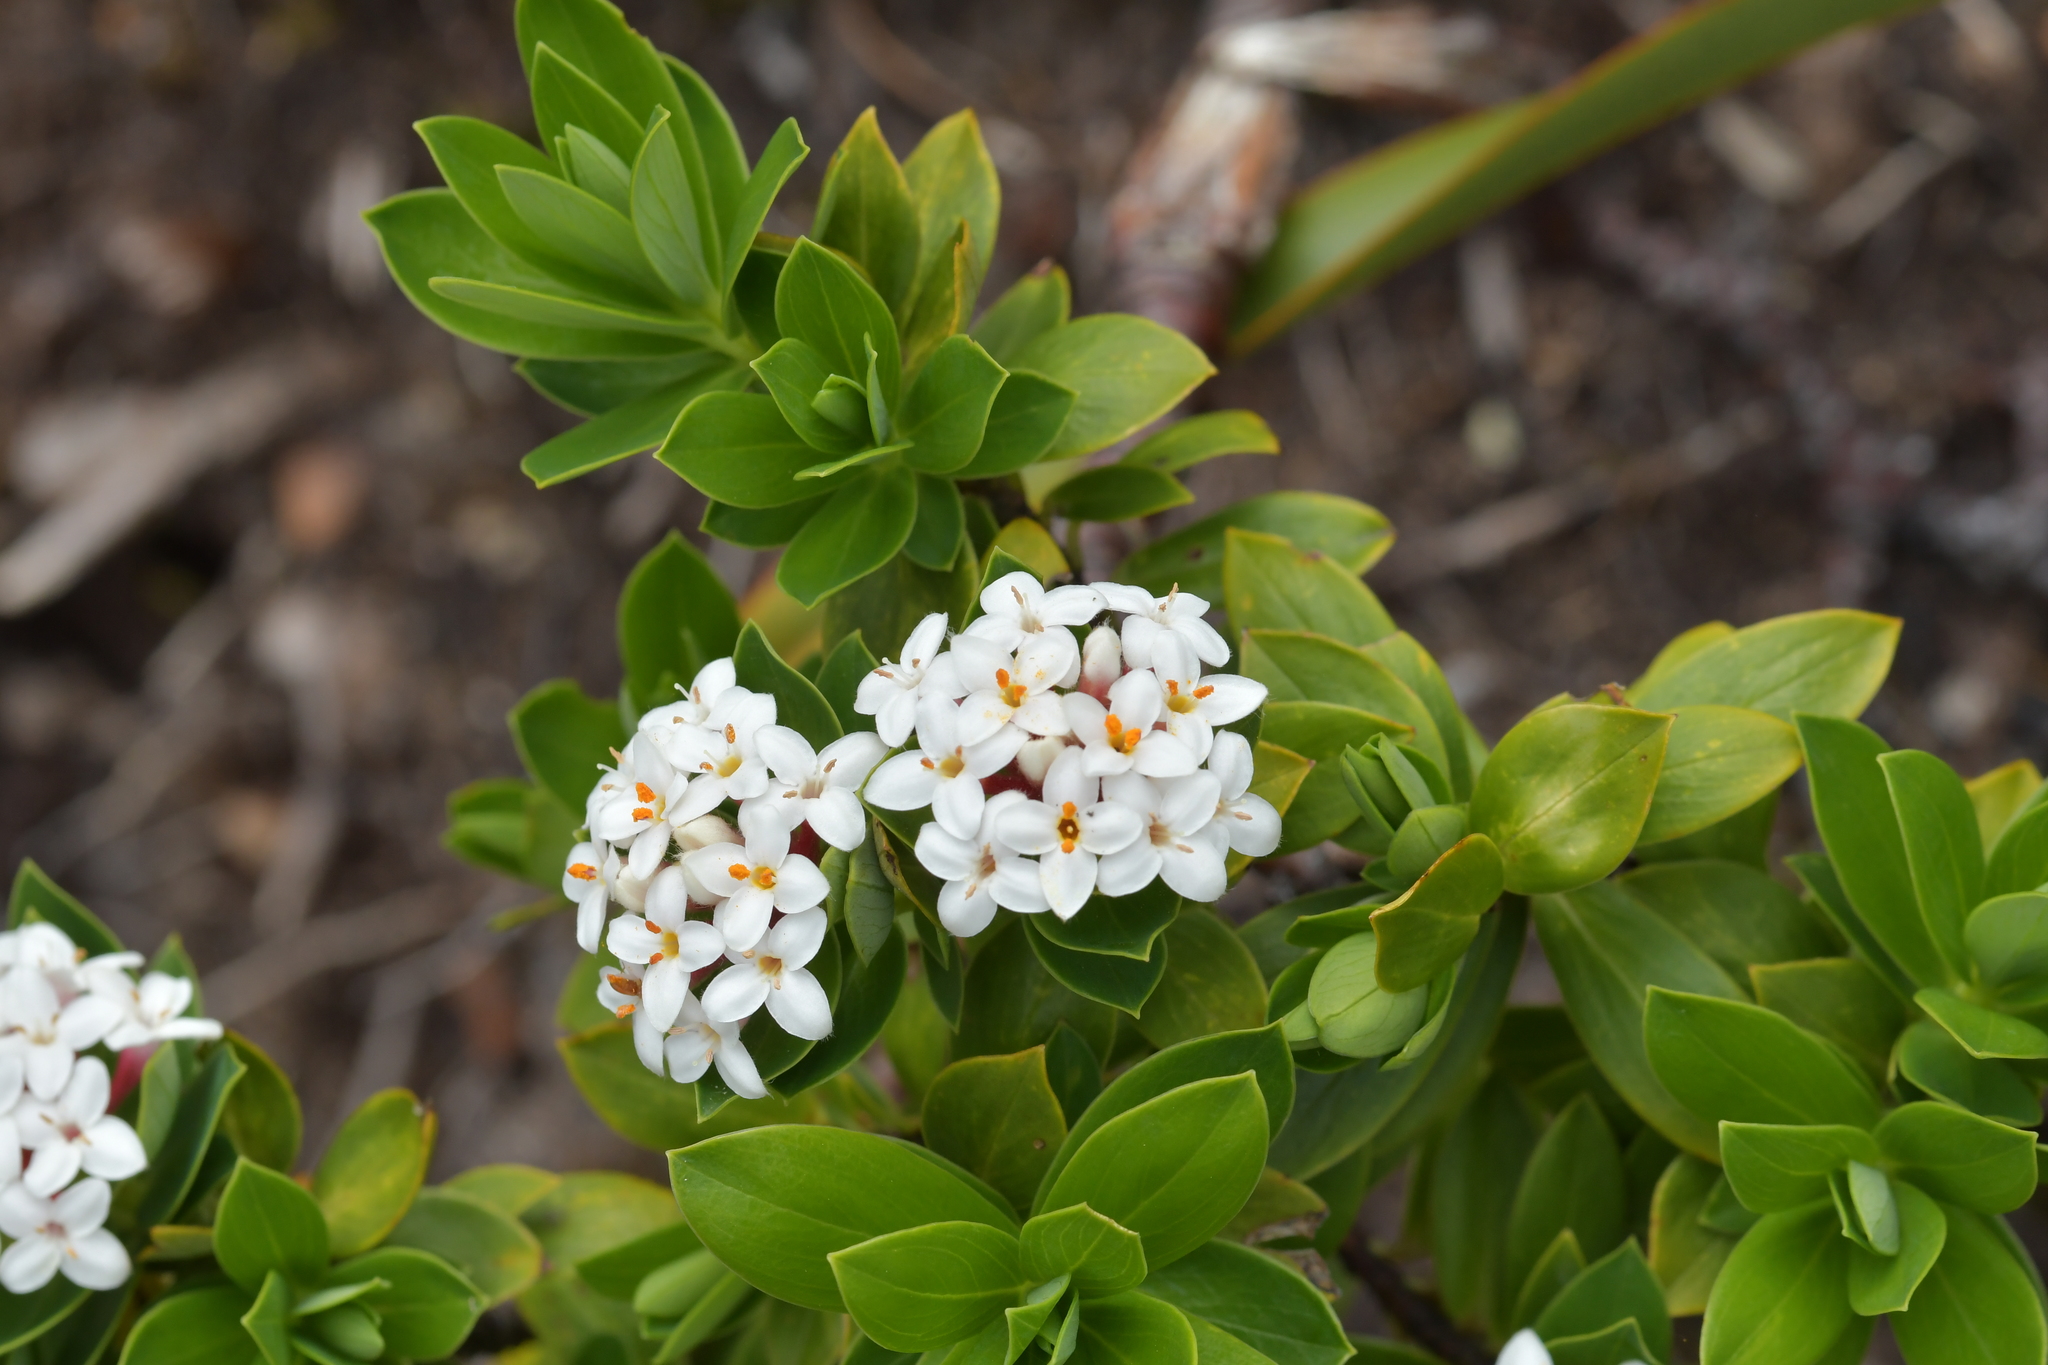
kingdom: Plantae
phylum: Tracheophyta
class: Magnoliopsida
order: Malvales
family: Thymelaeaceae
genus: Pimelea
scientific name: Pimelea gnidia
